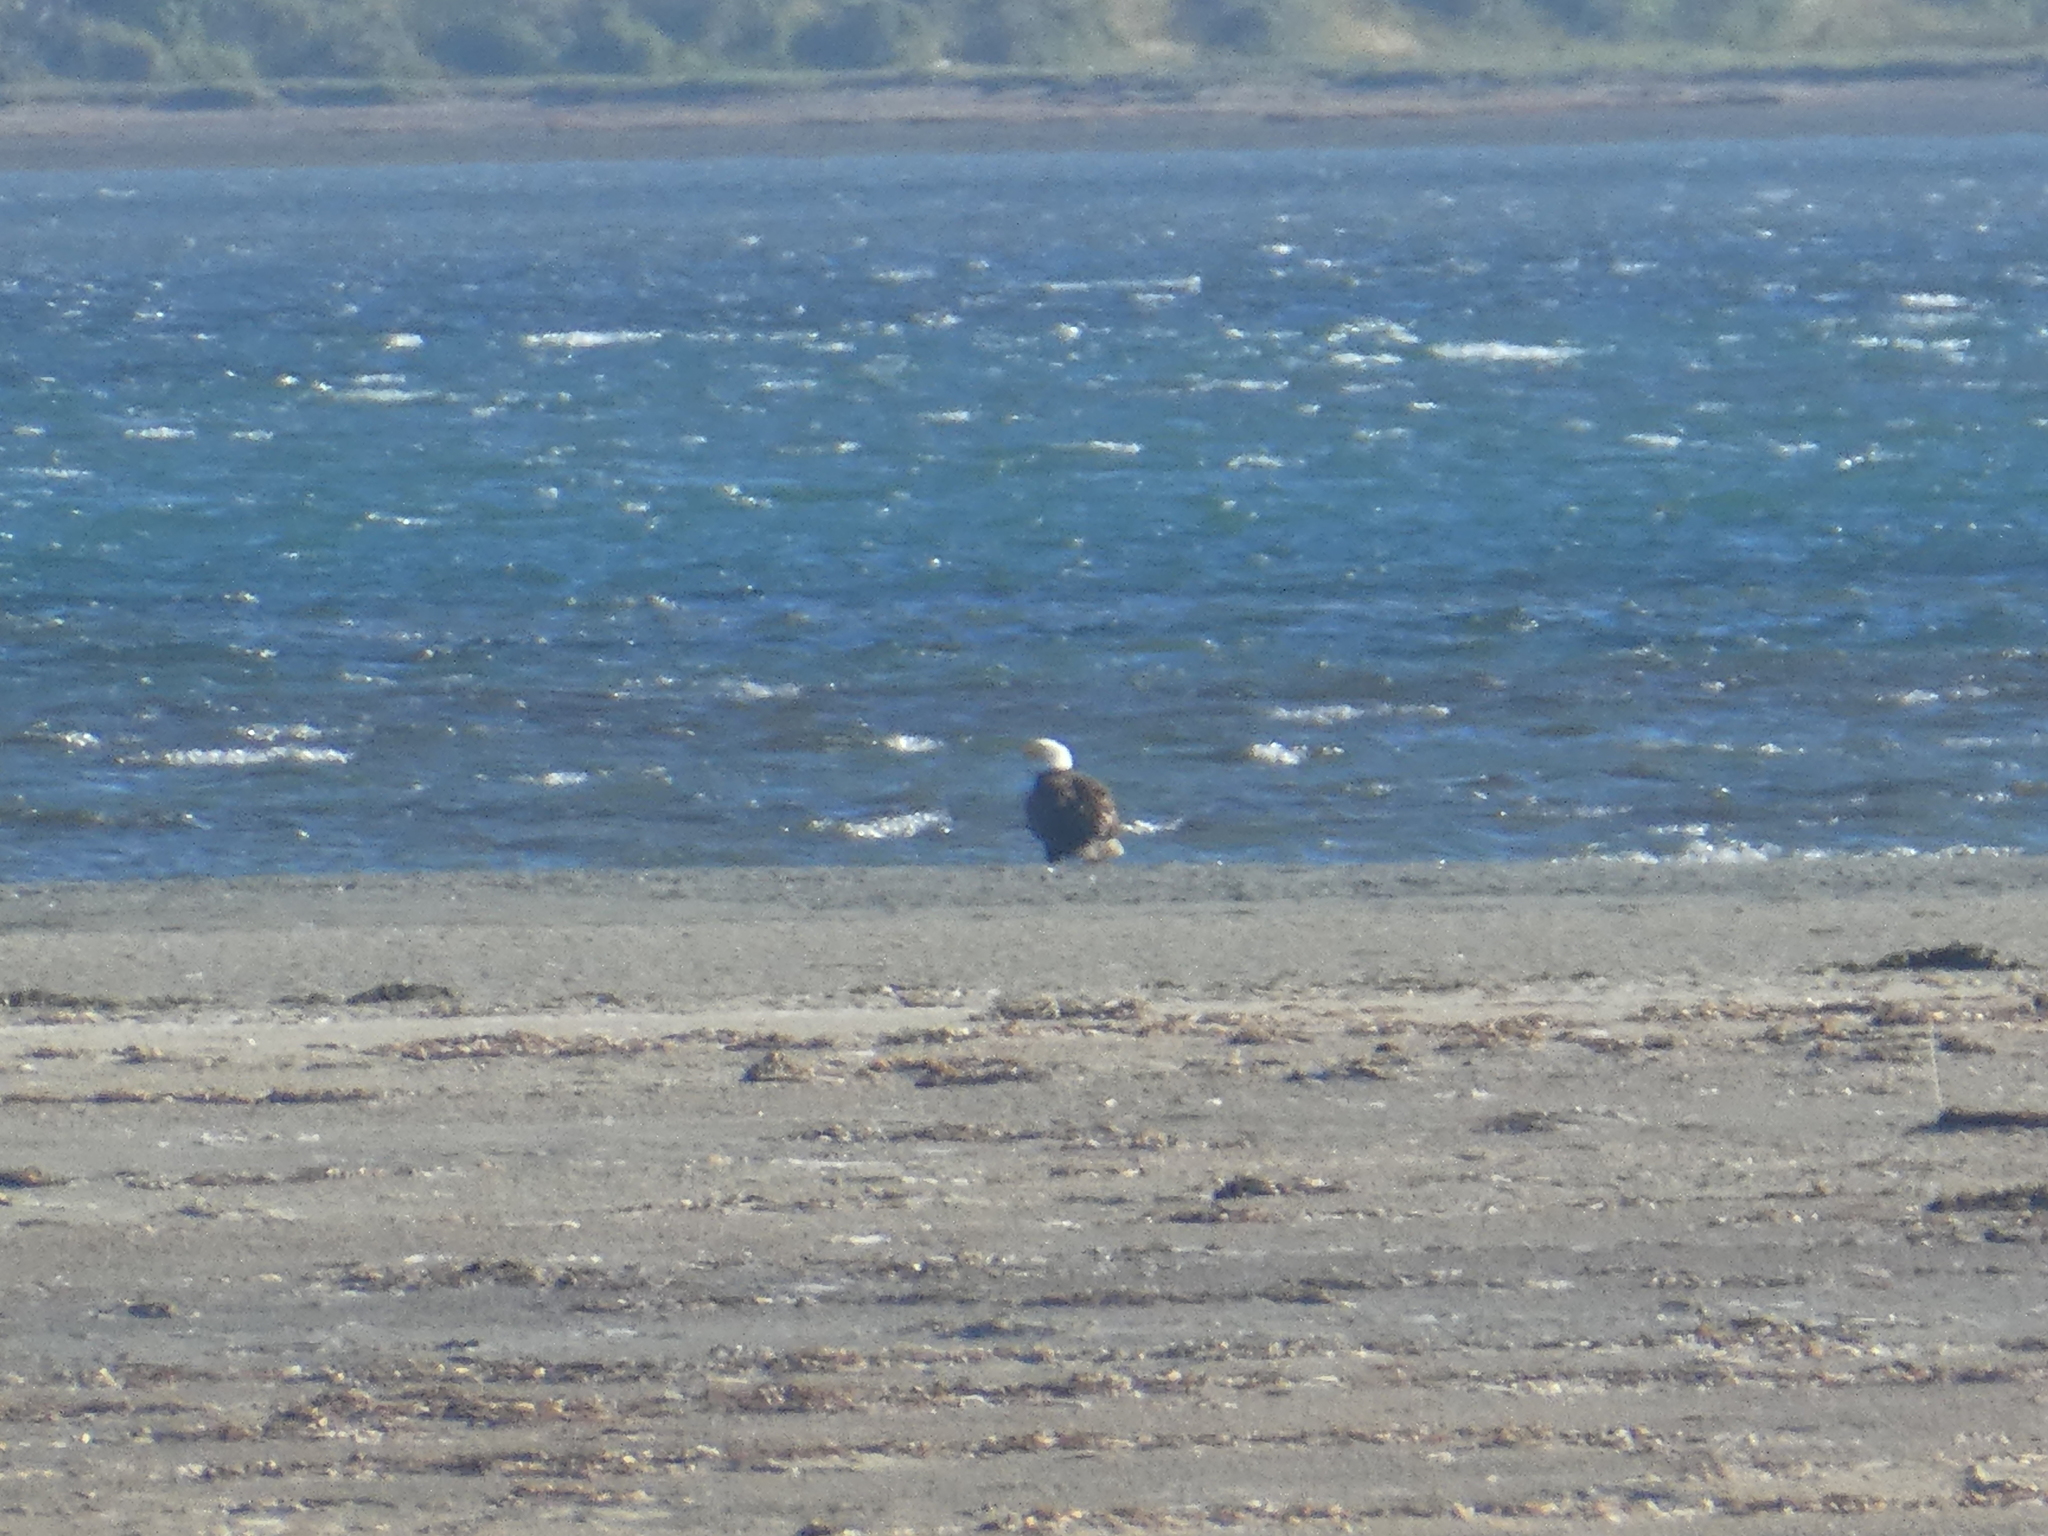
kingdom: Animalia
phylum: Chordata
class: Aves
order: Accipitriformes
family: Accipitridae
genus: Haliaeetus
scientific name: Haliaeetus leucocephalus
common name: Bald eagle
